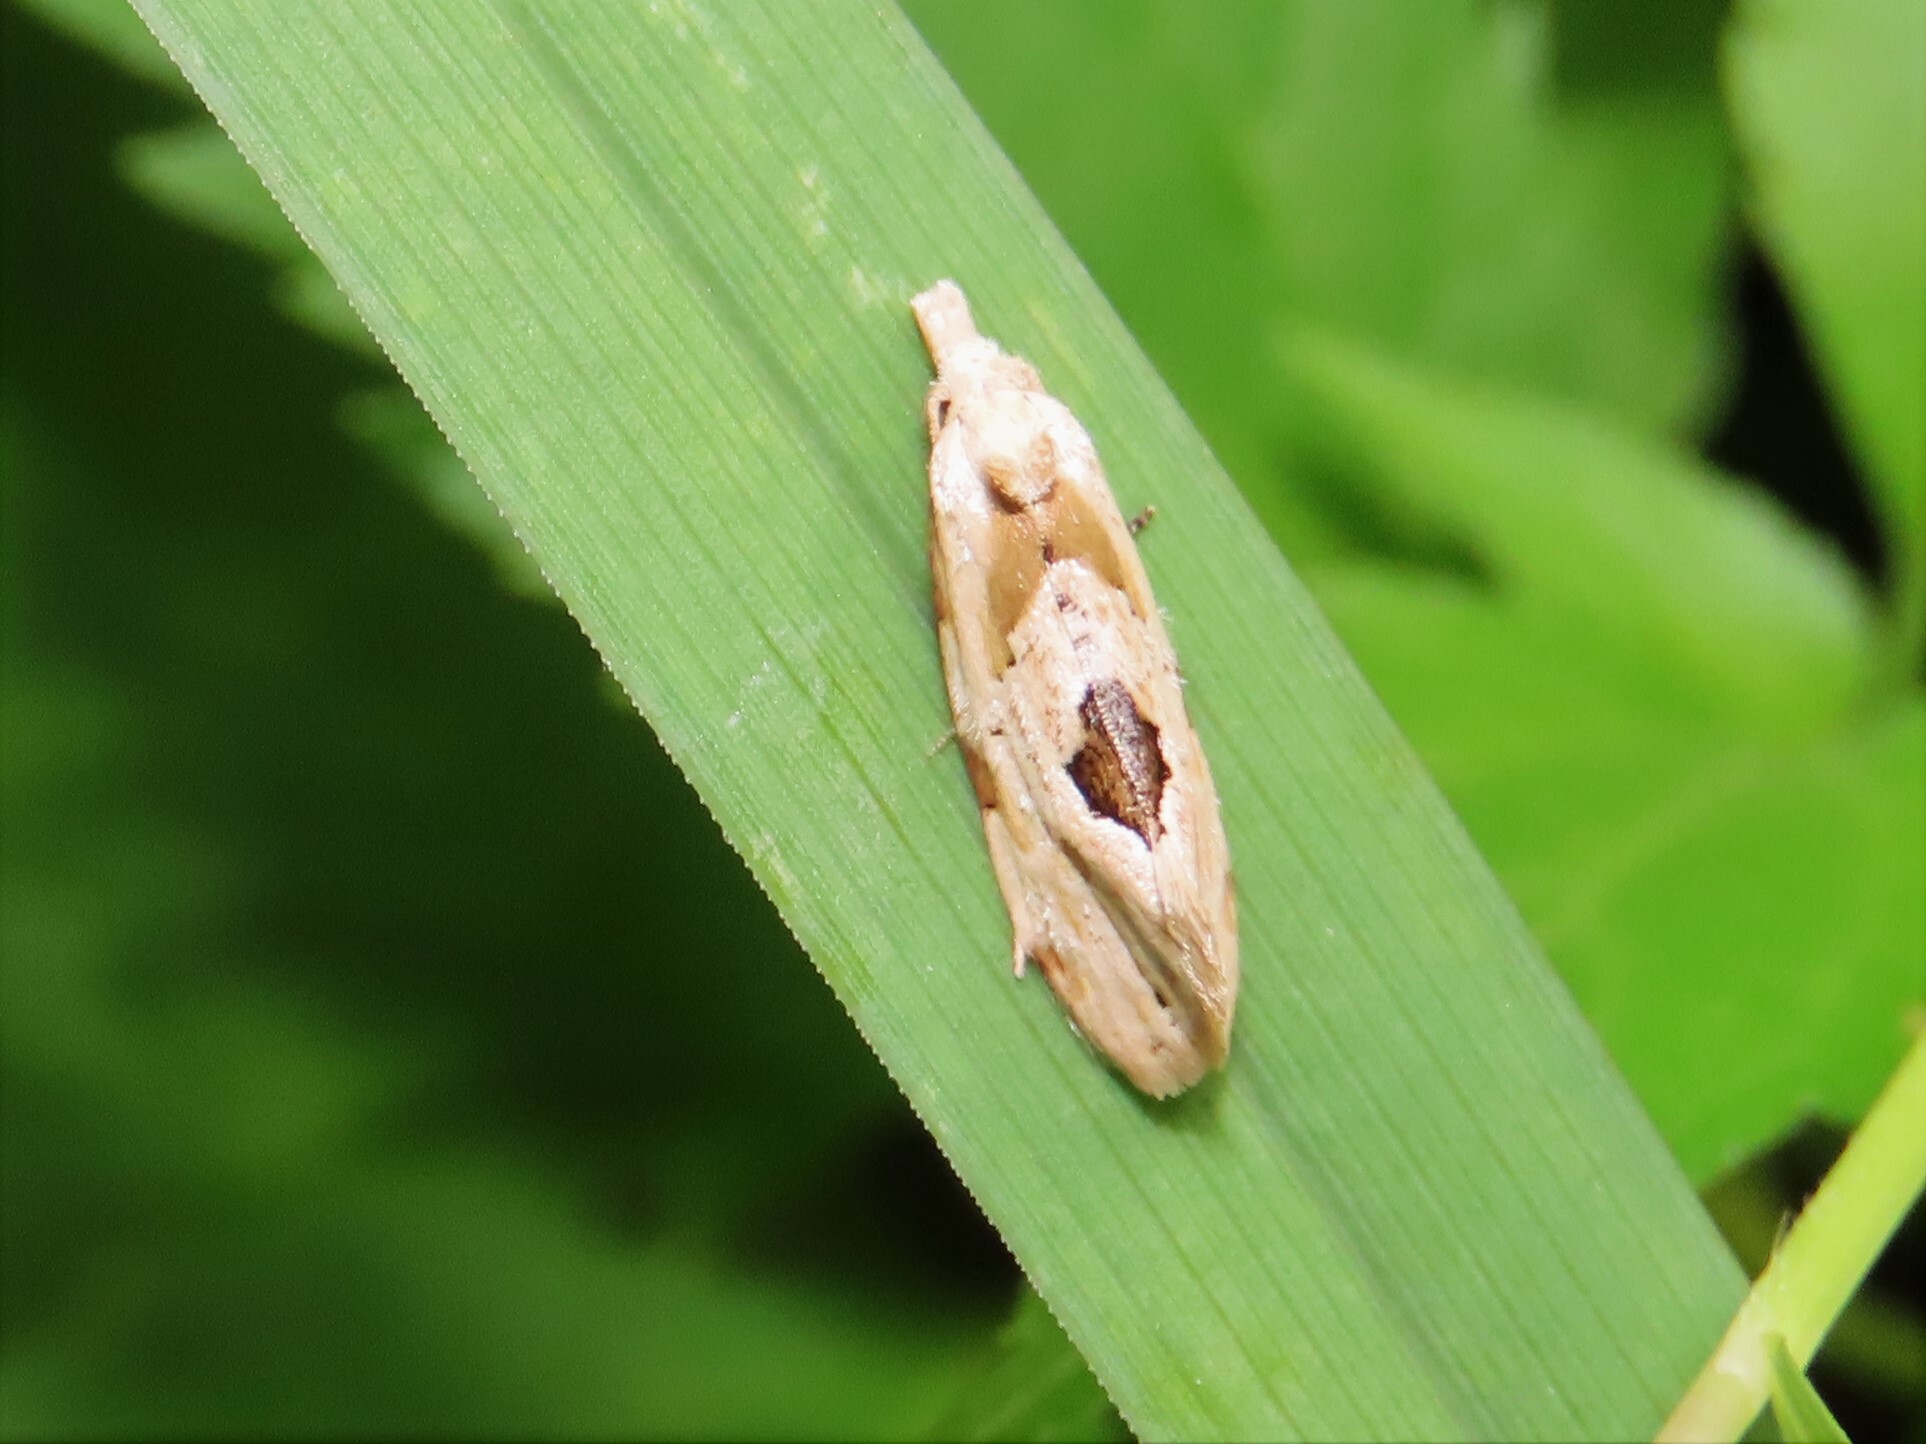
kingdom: Animalia
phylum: Arthropoda
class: Insecta
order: Lepidoptera
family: Tortricidae
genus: Aethes
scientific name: Aethes angustana
